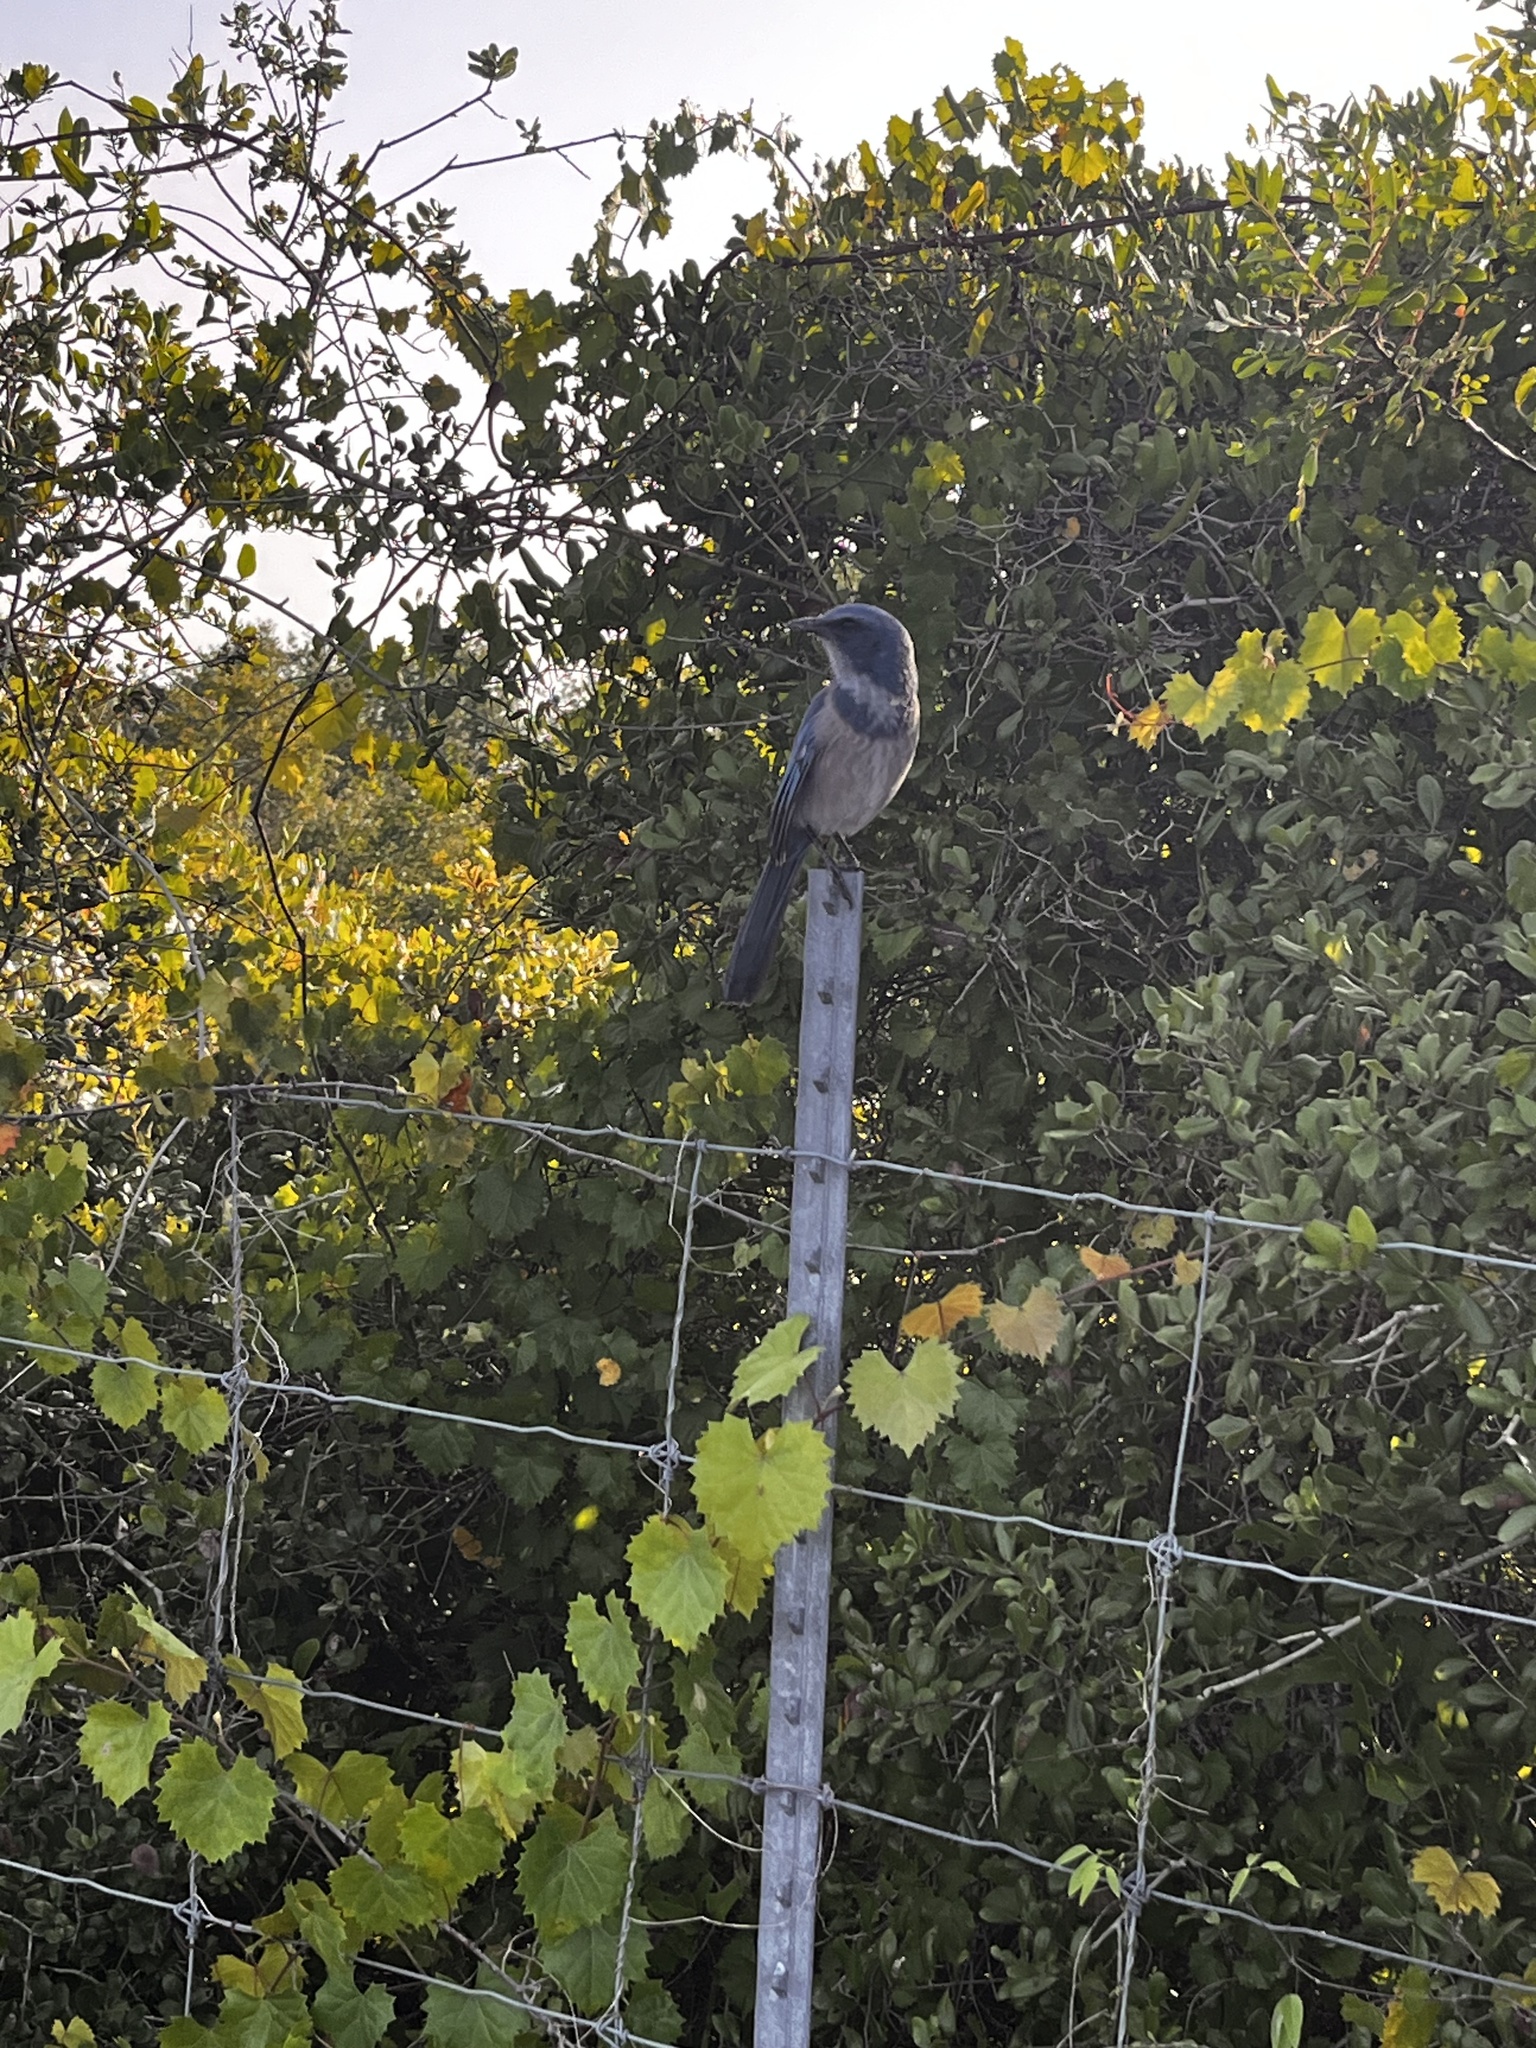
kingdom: Animalia
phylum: Chordata
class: Aves
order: Passeriformes
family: Corvidae
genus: Aphelocoma
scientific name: Aphelocoma coerulescens
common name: Florida scrub jay
